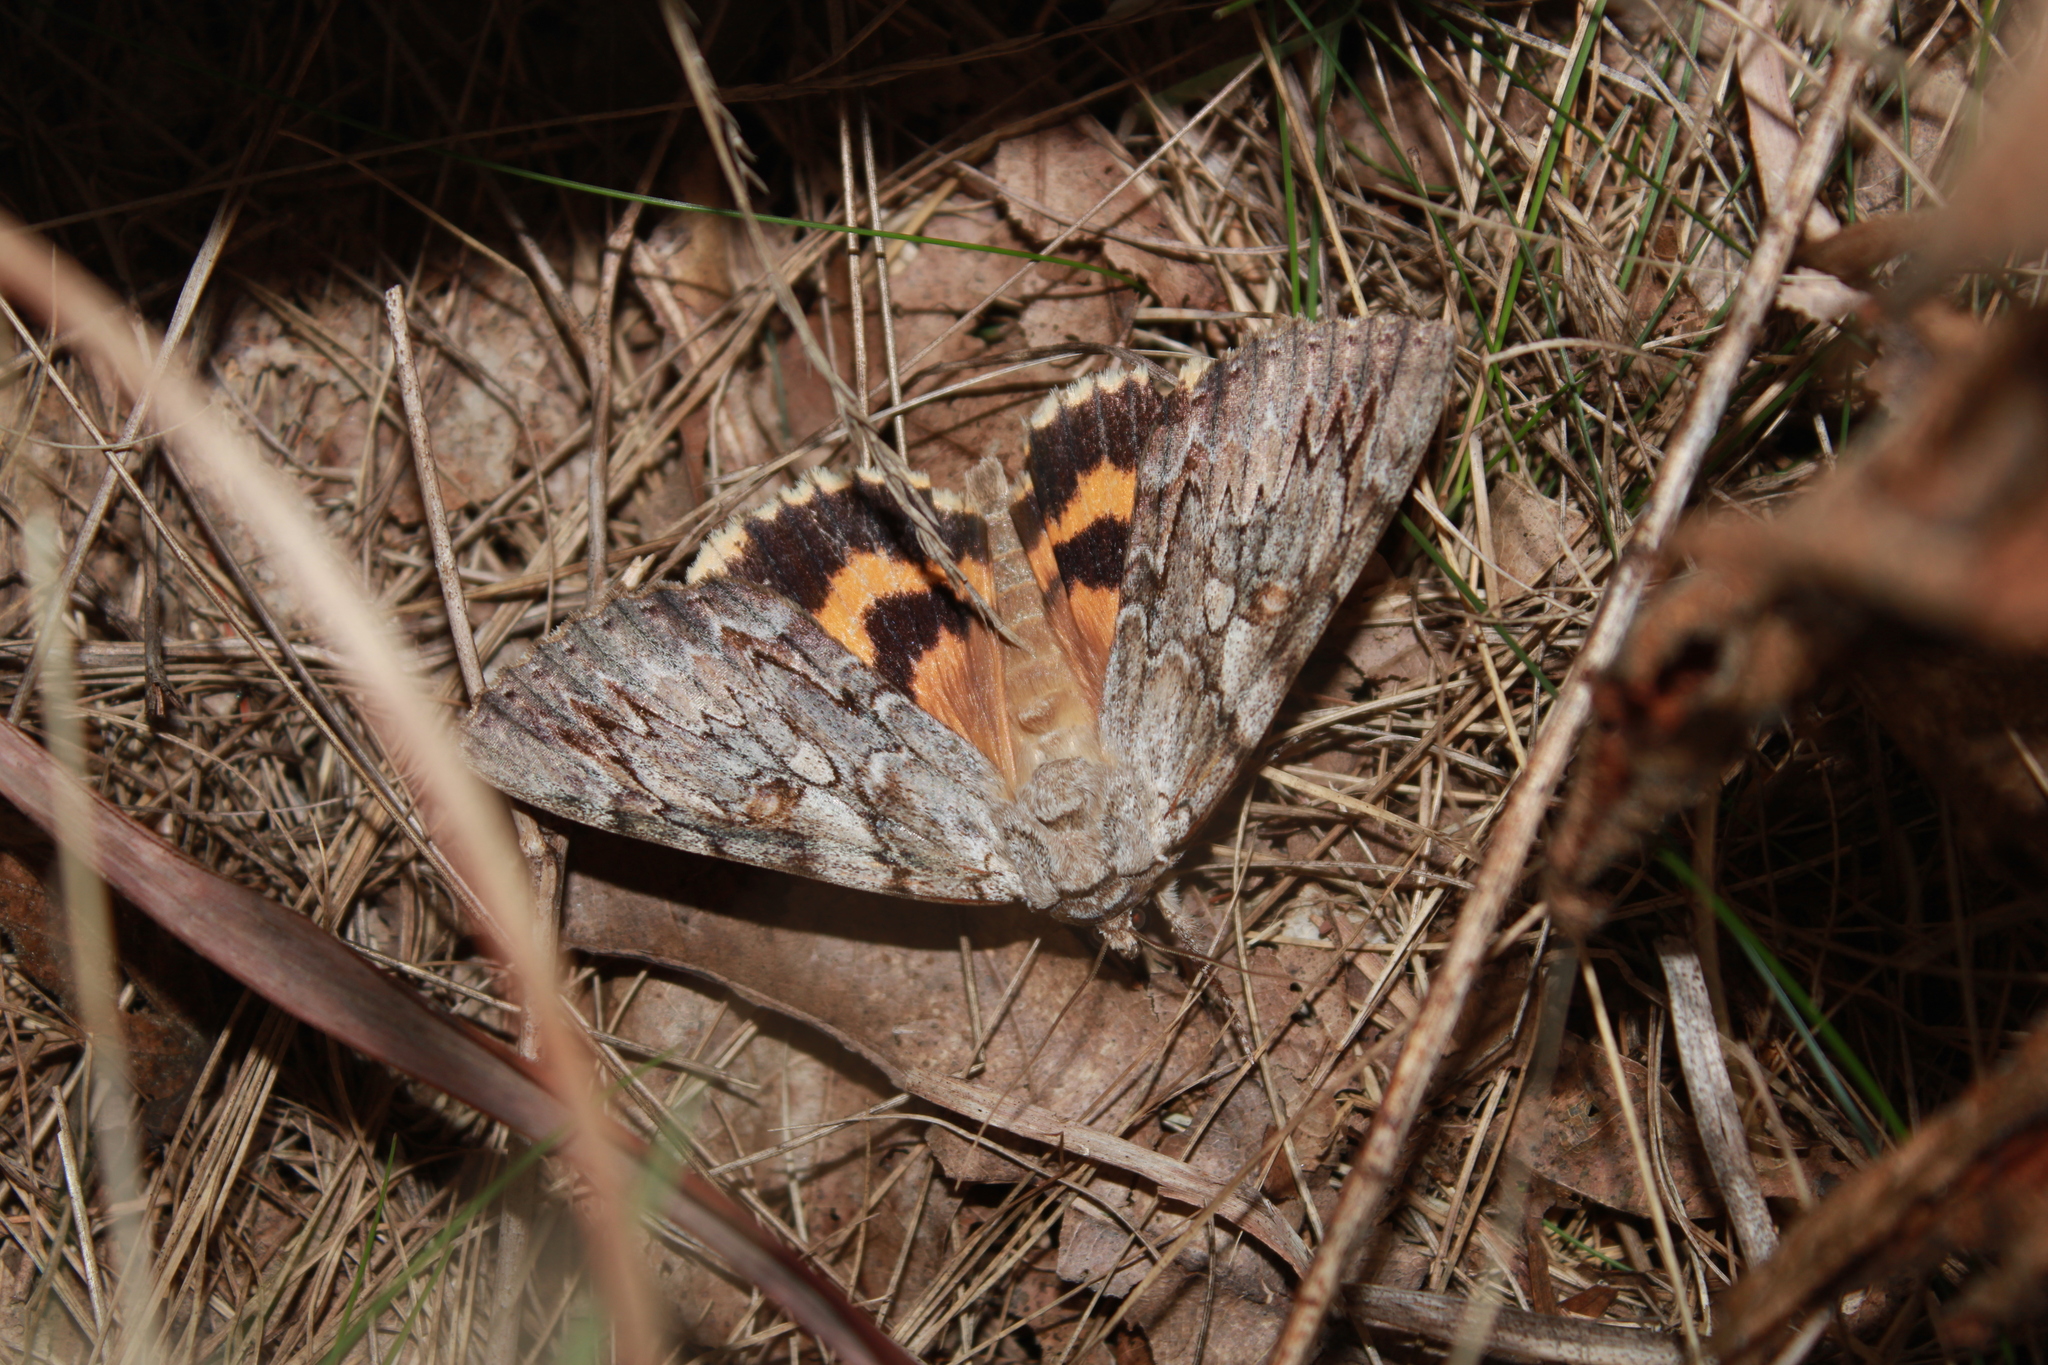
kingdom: Animalia
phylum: Arthropoda
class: Insecta
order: Lepidoptera
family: Erebidae
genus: Catocala
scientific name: Catocala subnata
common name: Youthful underwing
